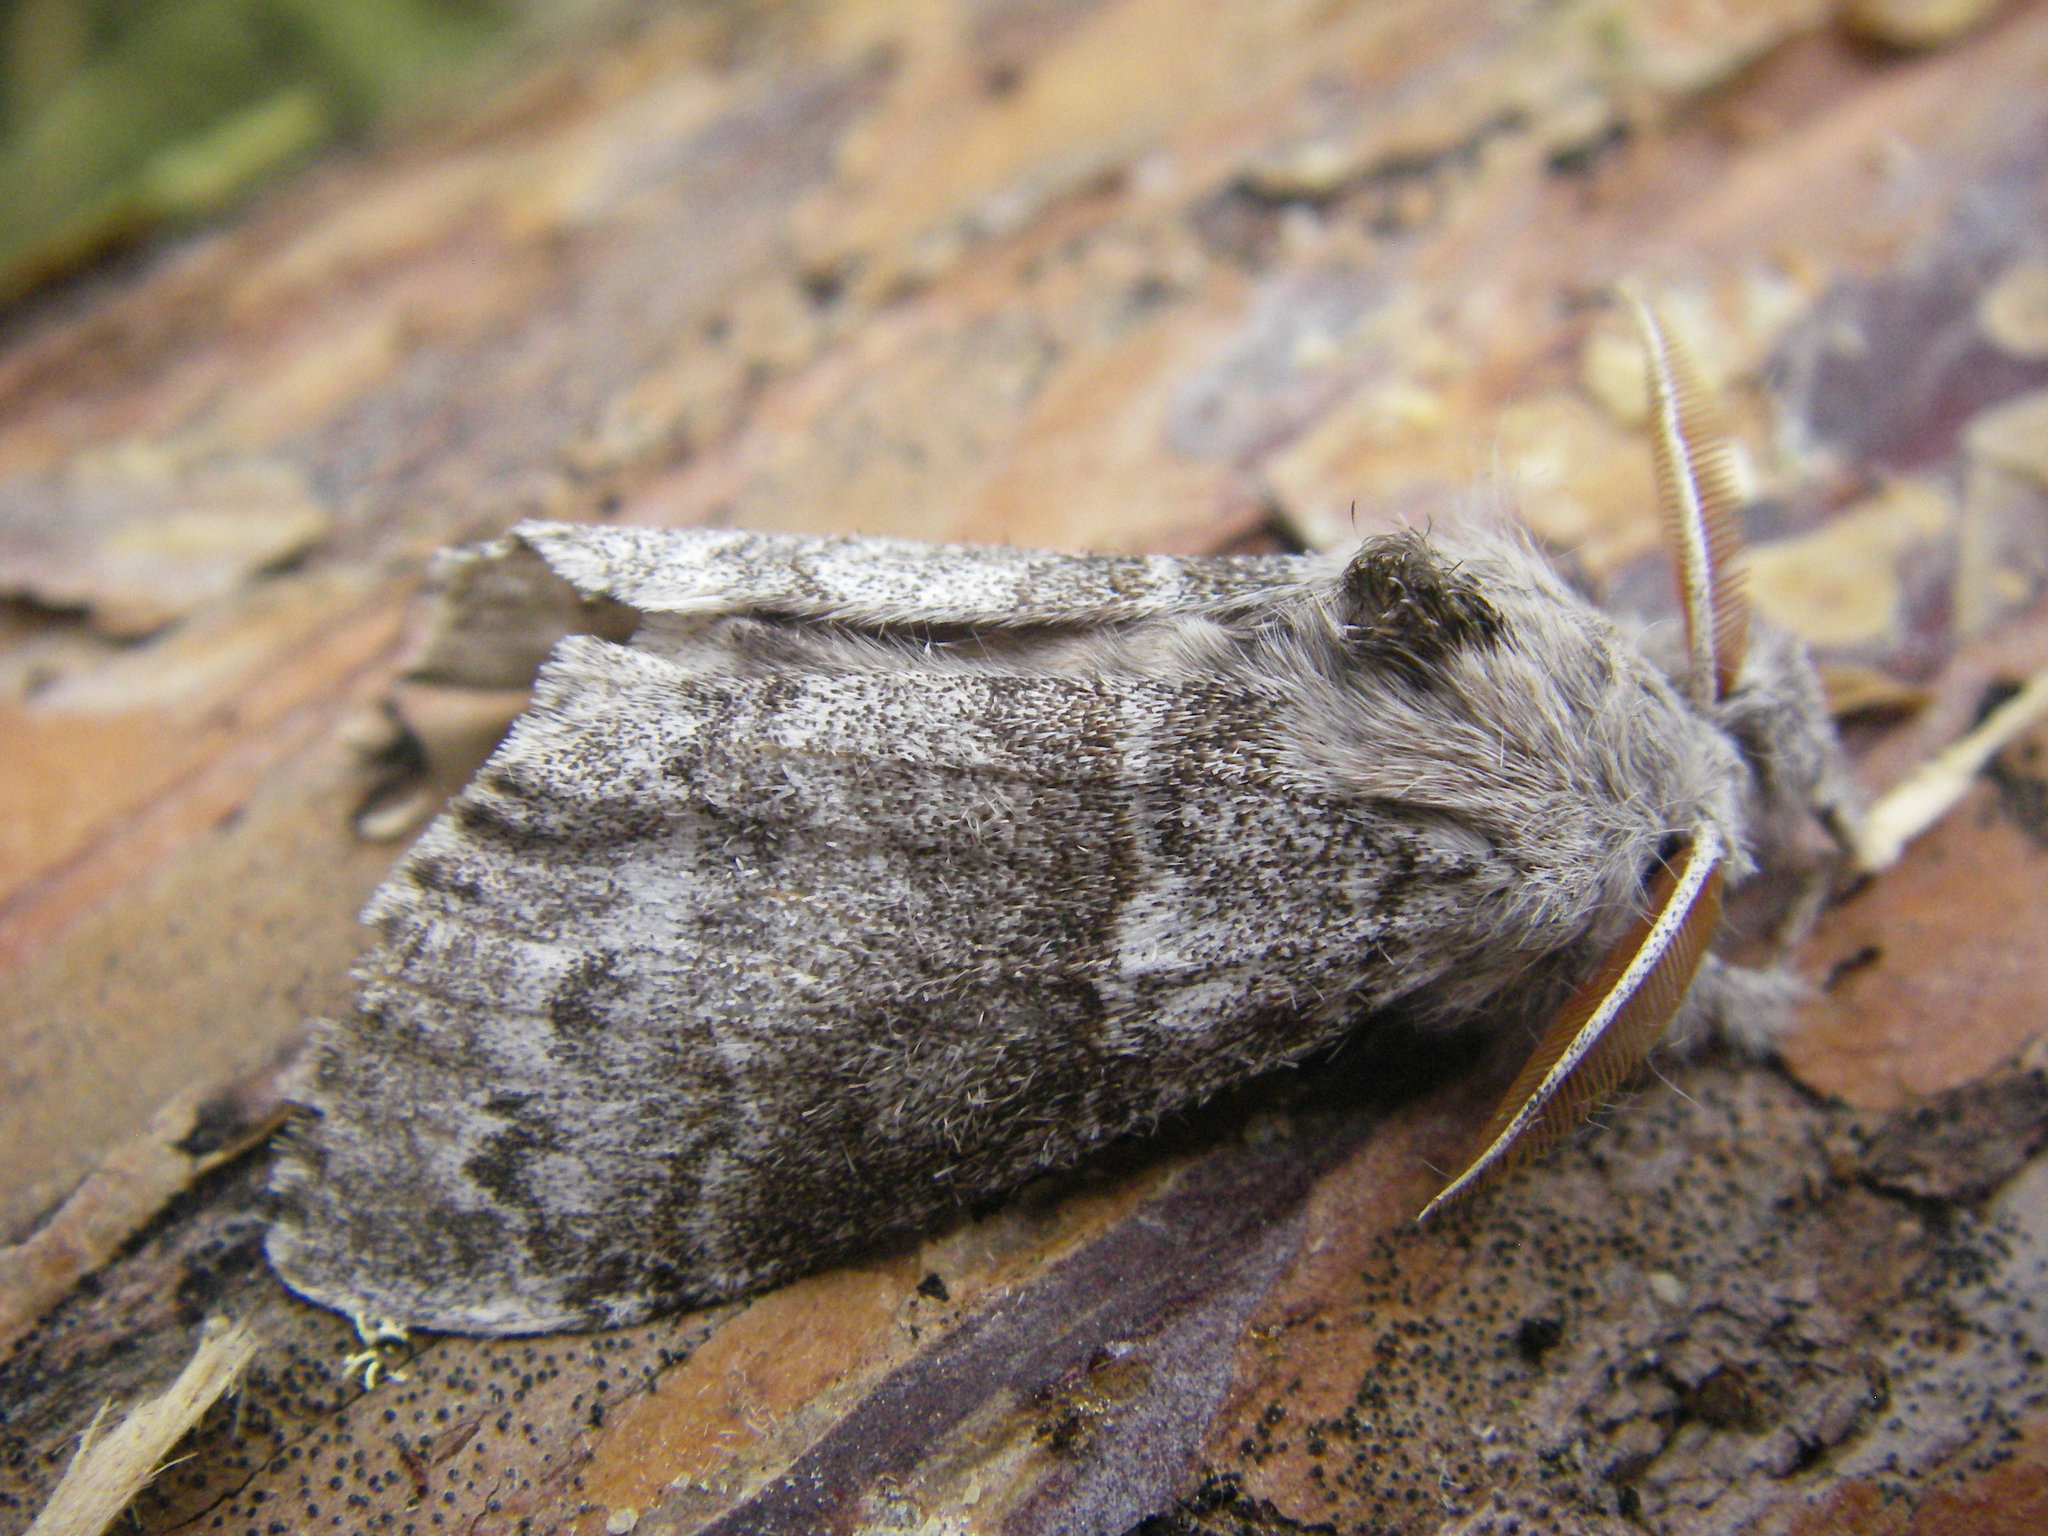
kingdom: Animalia
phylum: Arthropoda
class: Insecta
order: Lepidoptera
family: Erebidae
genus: Calliteara
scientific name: Calliteara pudibunda
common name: Pale tussock
